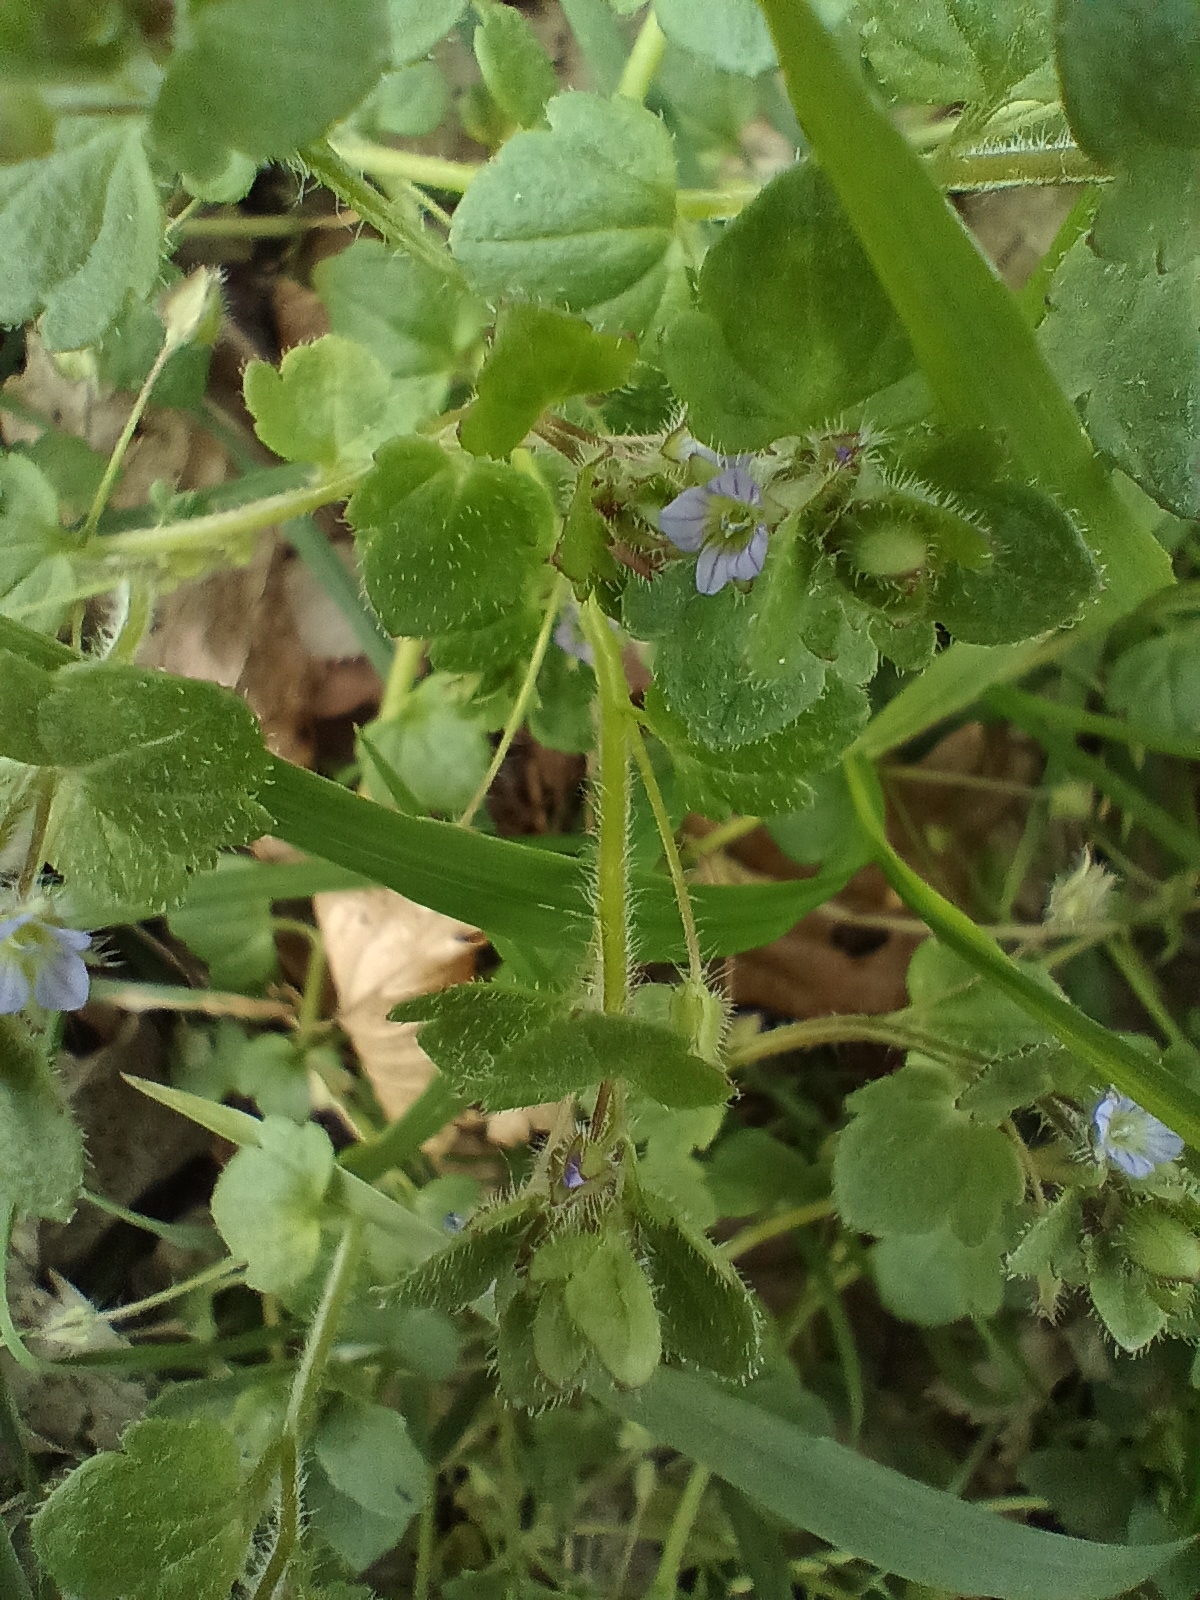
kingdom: Plantae
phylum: Tracheophyta
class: Magnoliopsida
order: Lamiales
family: Plantaginaceae
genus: Veronica
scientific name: Veronica sublobata
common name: False ivy-leaved speedwell
